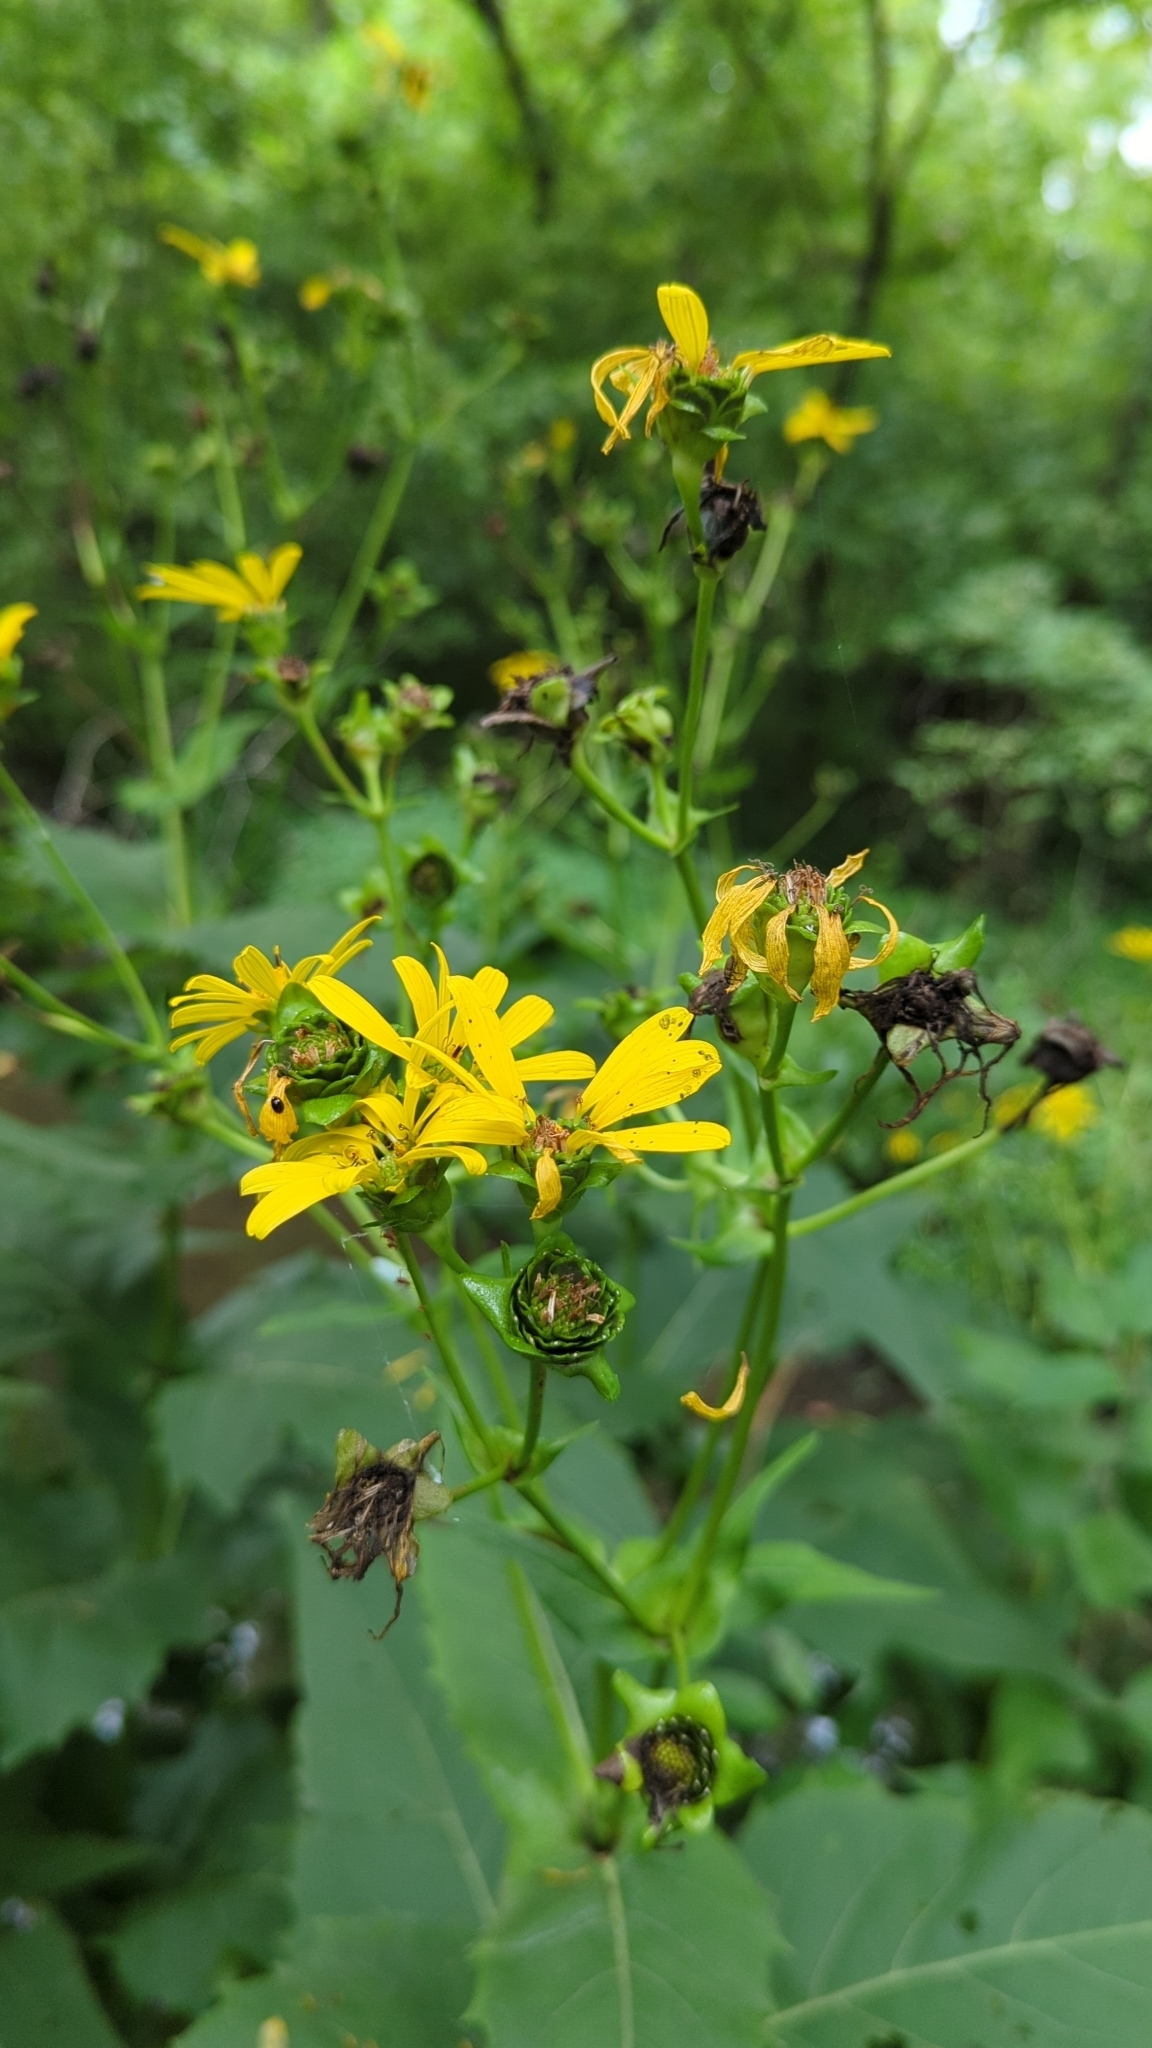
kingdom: Plantae
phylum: Tracheophyta
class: Magnoliopsida
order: Asterales
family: Asteraceae
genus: Silphium
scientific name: Silphium perfoliatum
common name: Cup-plant
